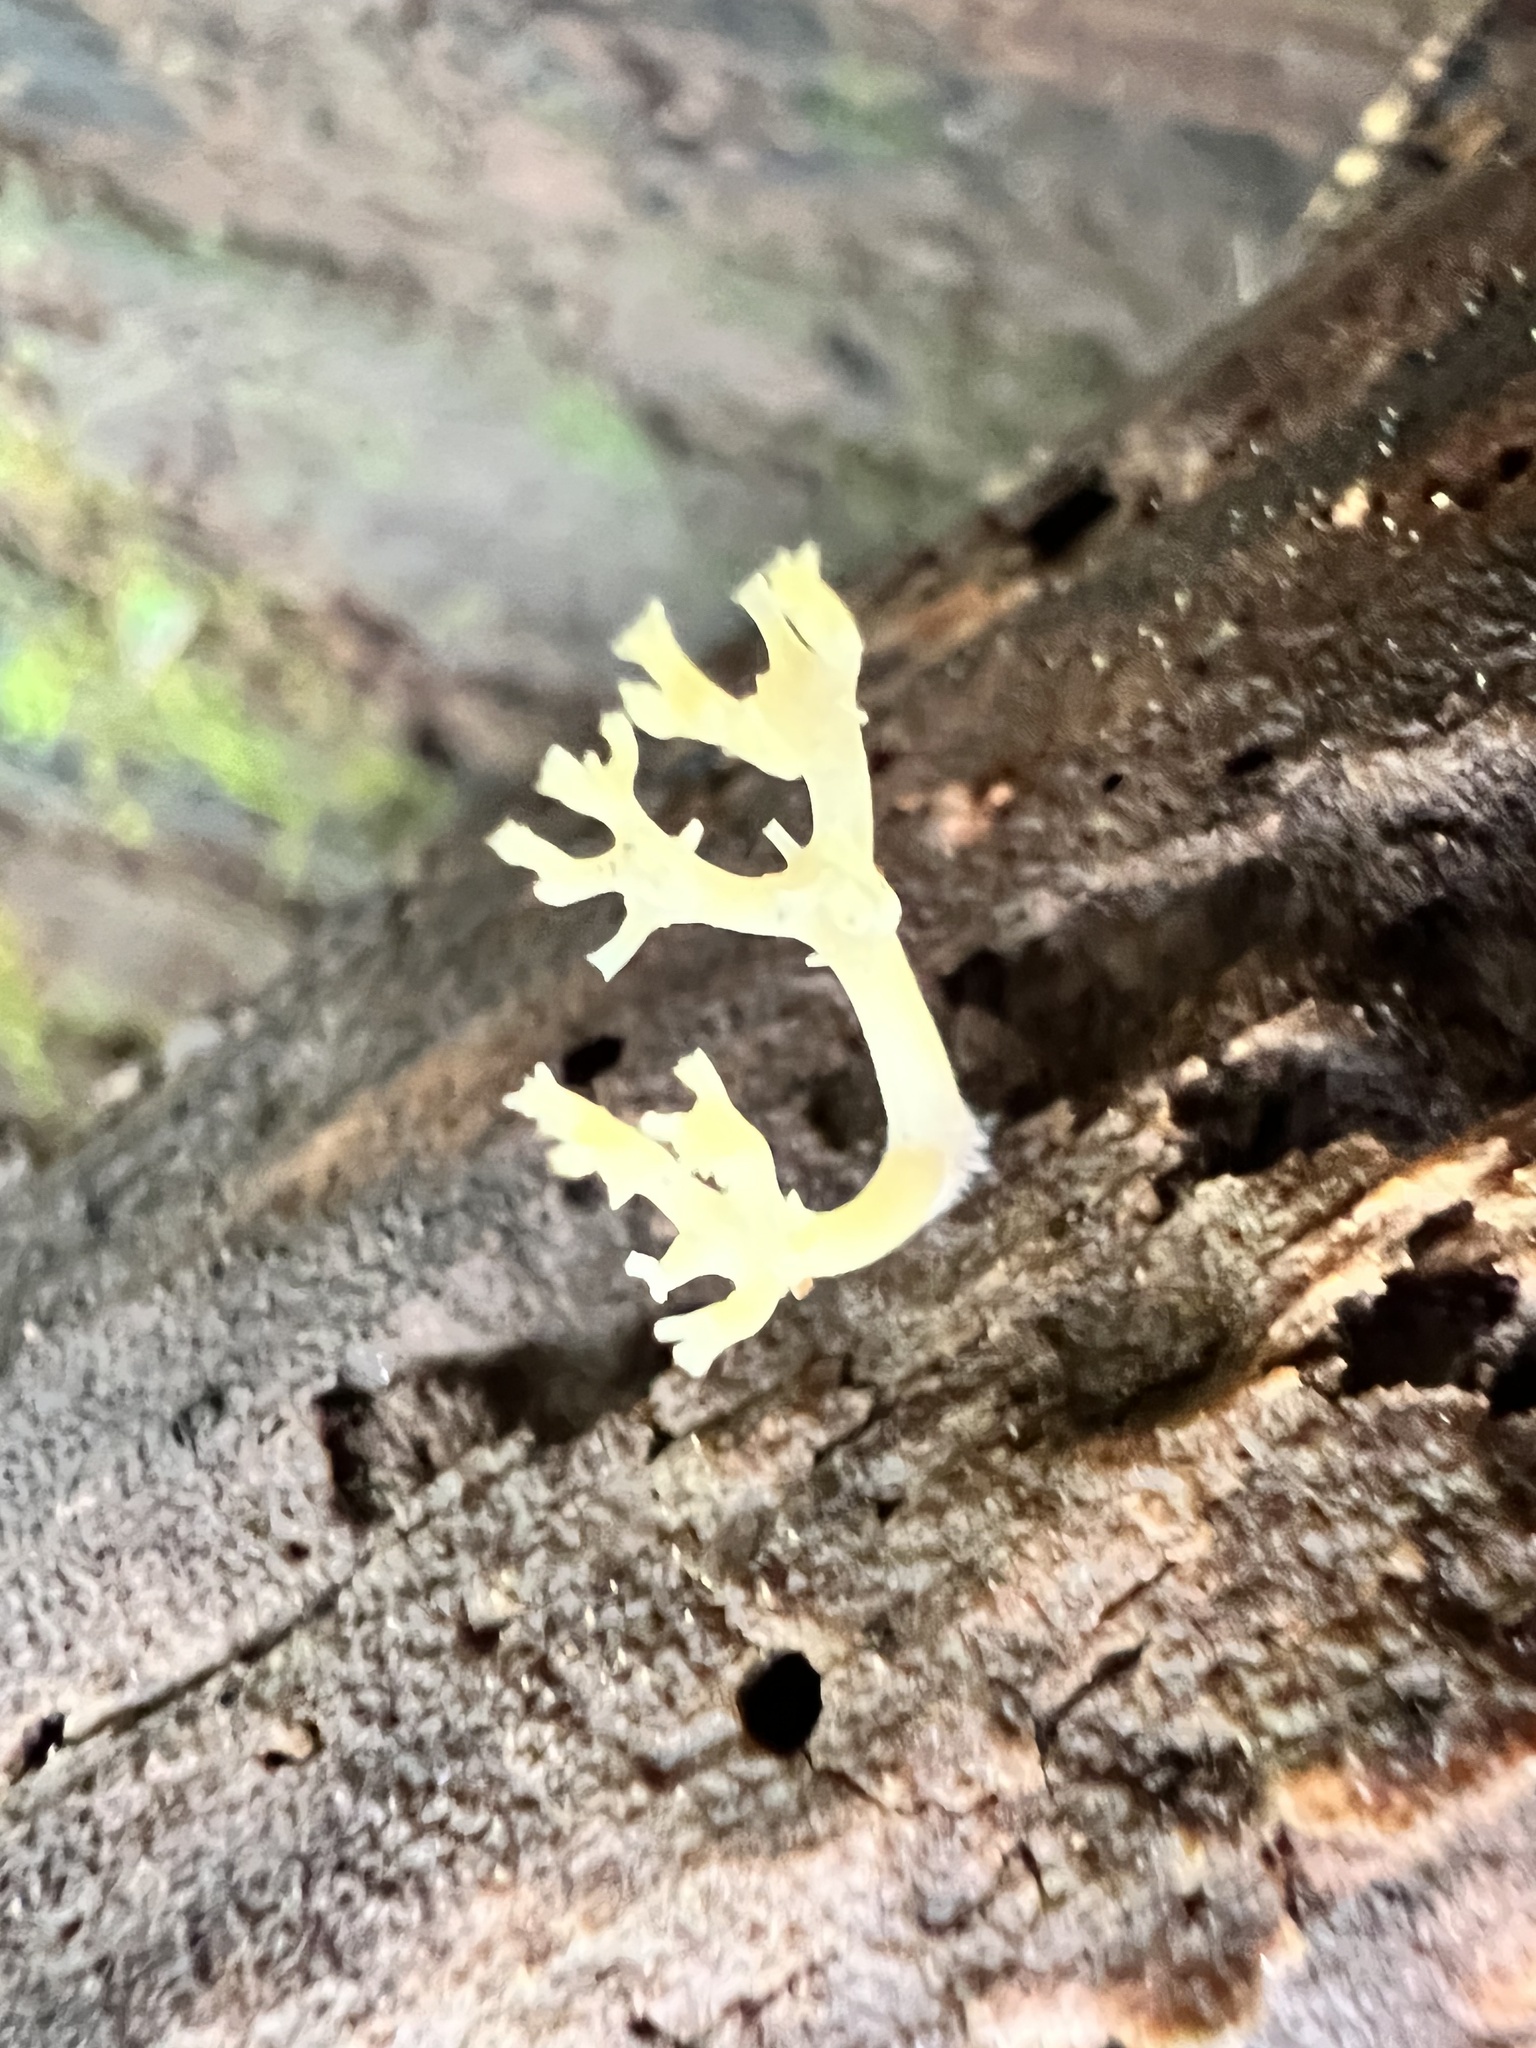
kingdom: Fungi
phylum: Basidiomycota
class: Agaricomycetes
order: Russulales
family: Auriscalpiaceae
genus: Artomyces
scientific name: Artomyces pyxidatus
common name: Crown-tipped coral fungus
